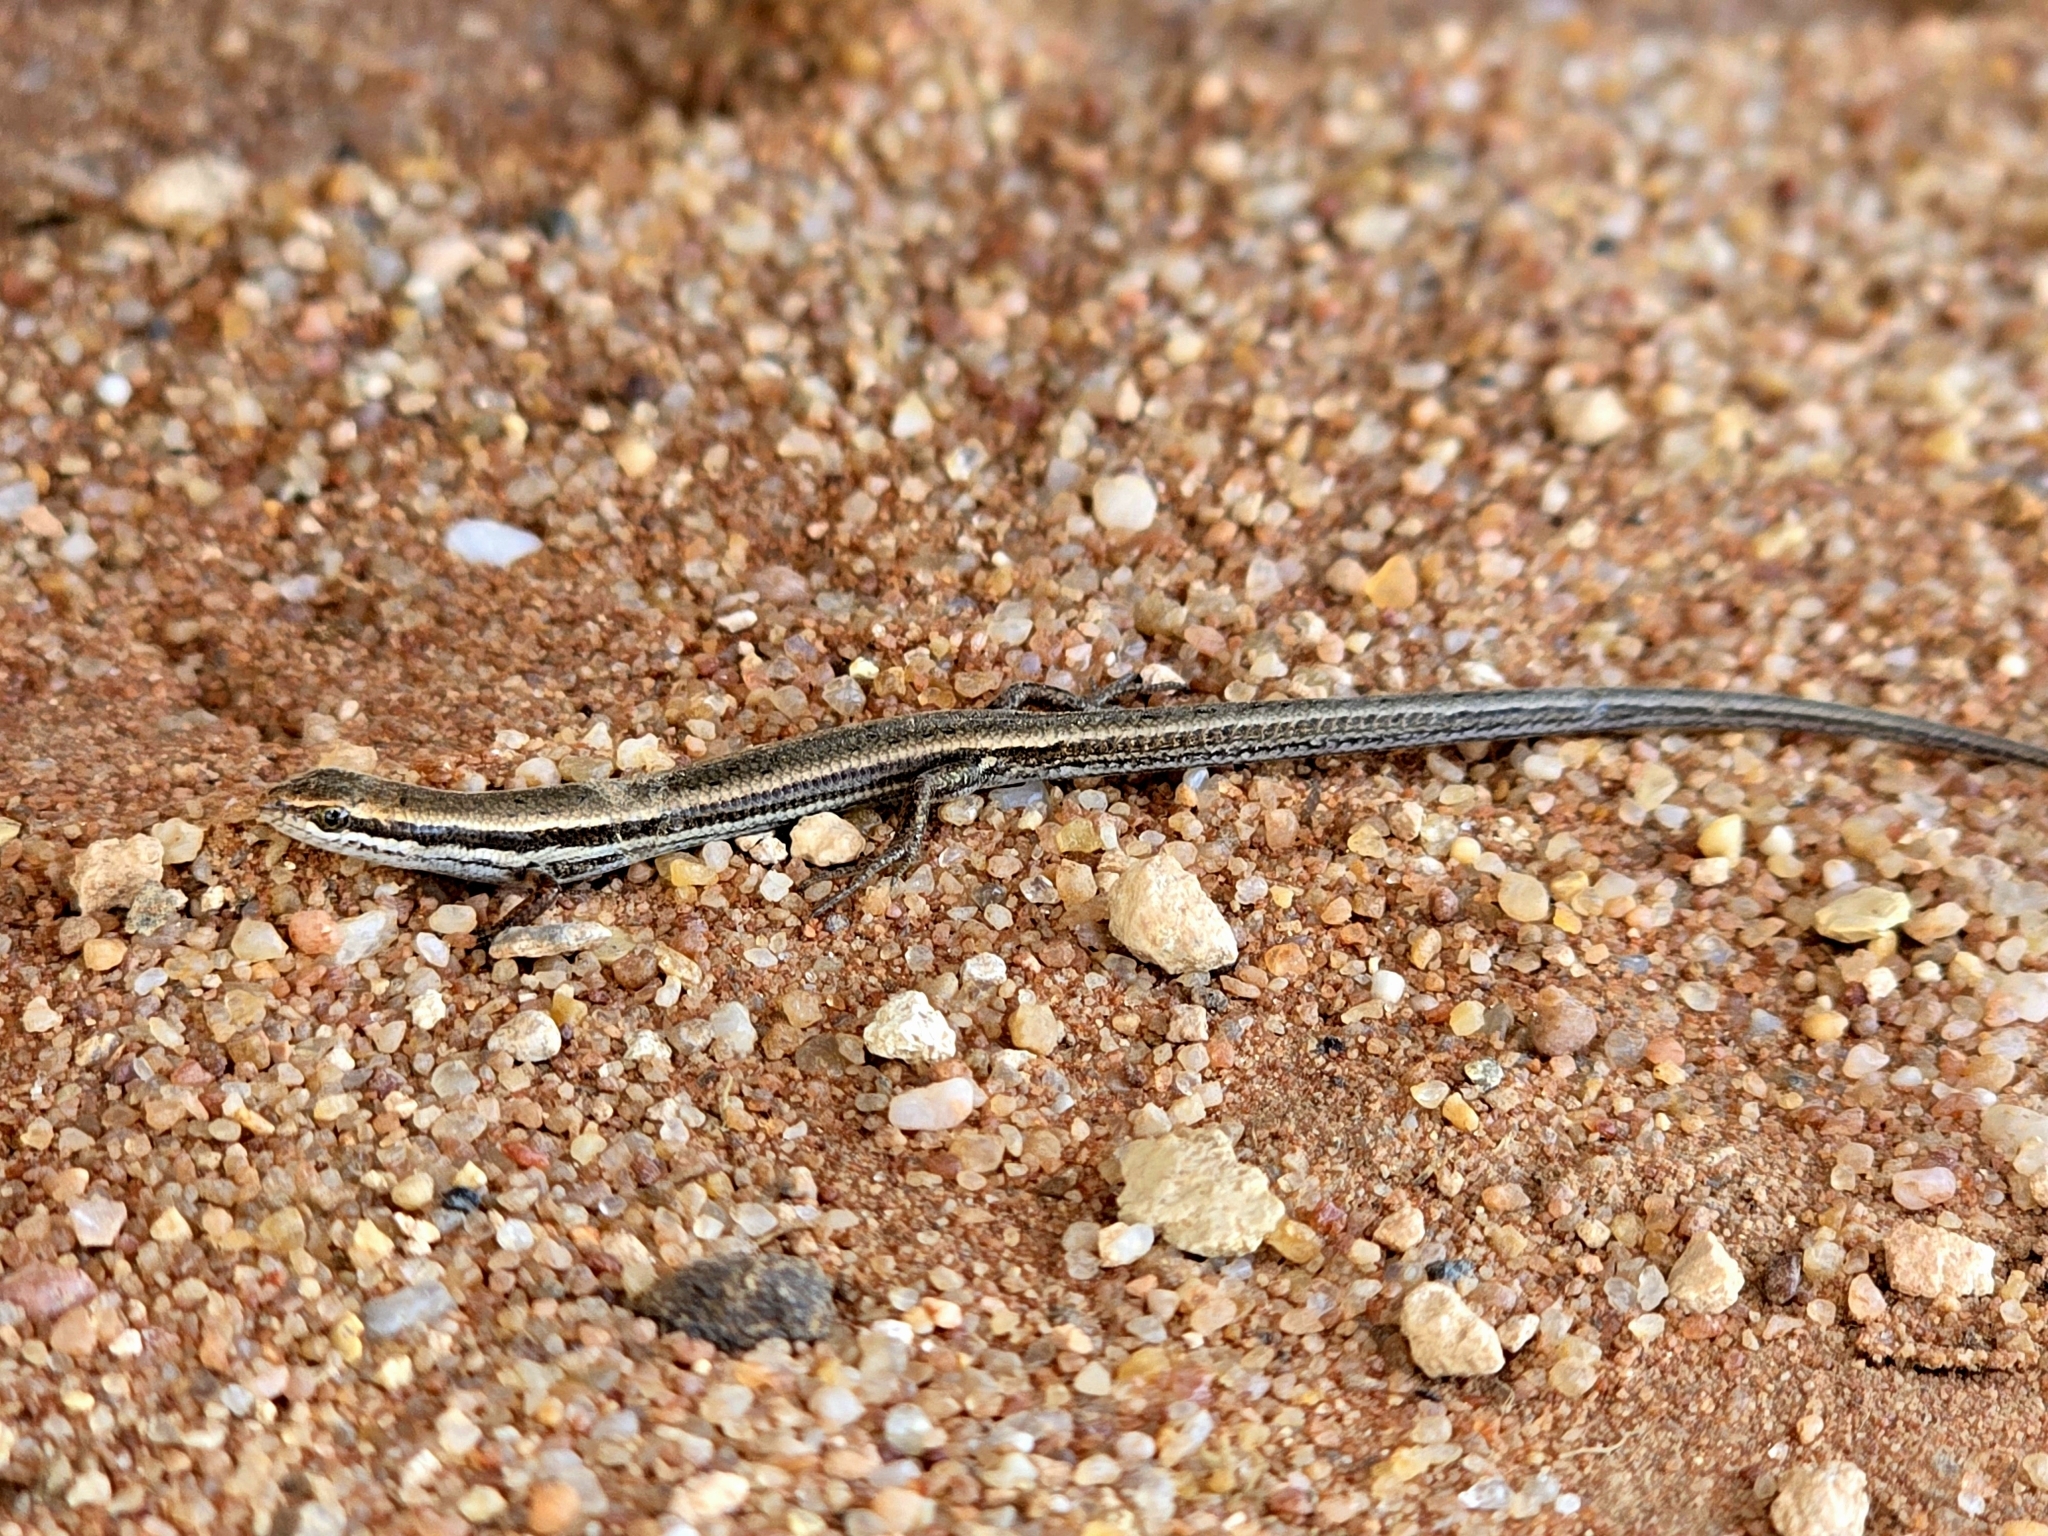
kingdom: Animalia
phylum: Chordata
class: Squamata
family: Scincidae
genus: Menetia
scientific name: Menetia greyii
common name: Common dwarf skink
